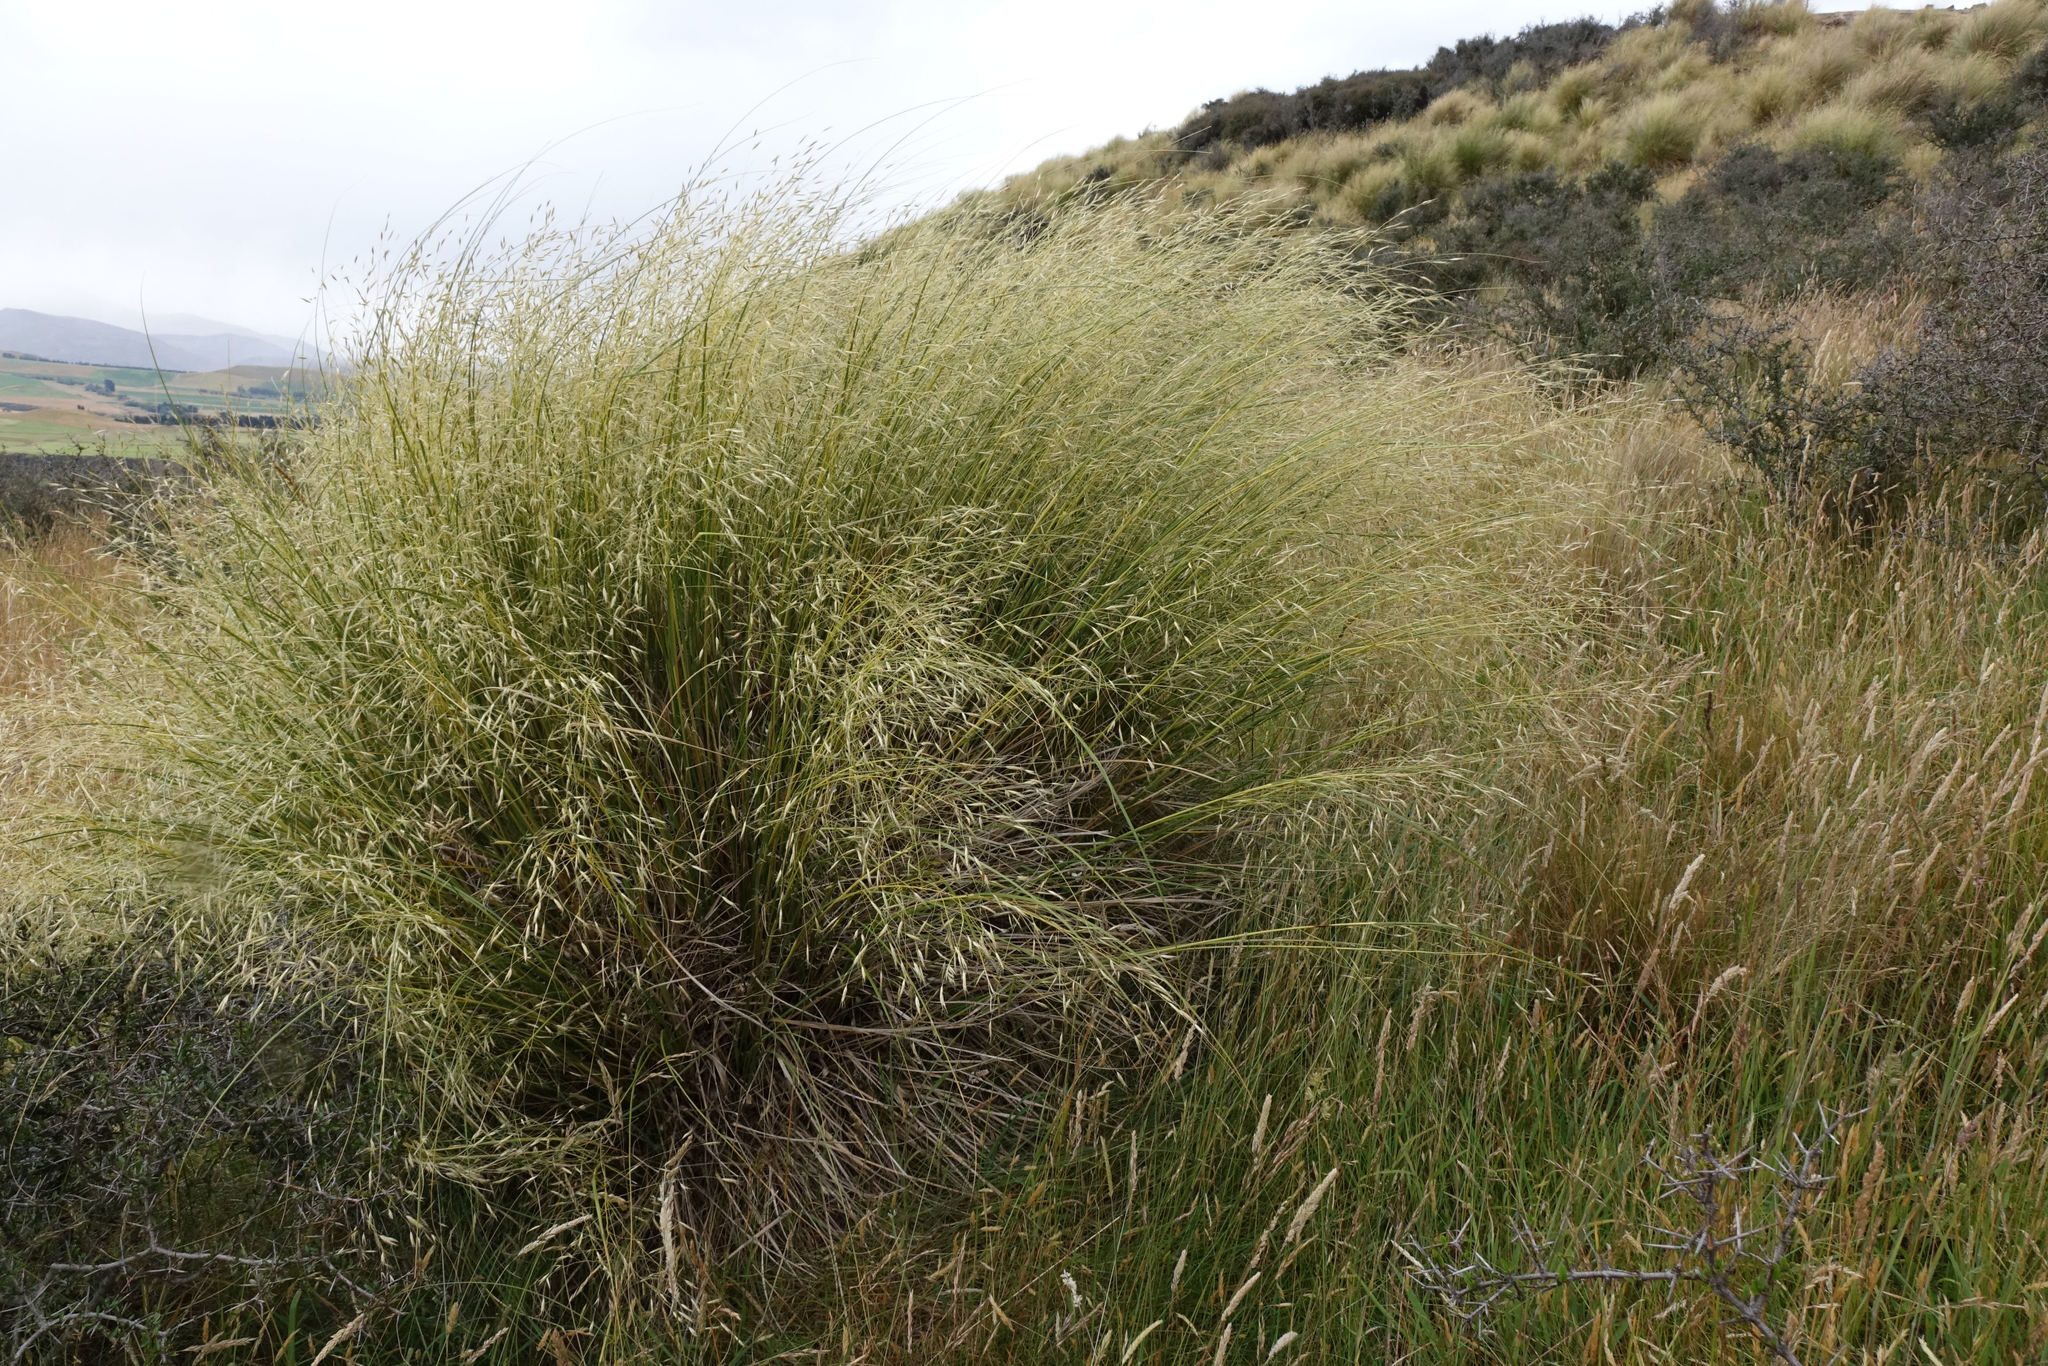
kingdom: Plantae
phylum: Tracheophyta
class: Liliopsida
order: Poales
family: Poaceae
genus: Chionochloa
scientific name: Chionochloa rigida
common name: Narrow leaved snow tussock
